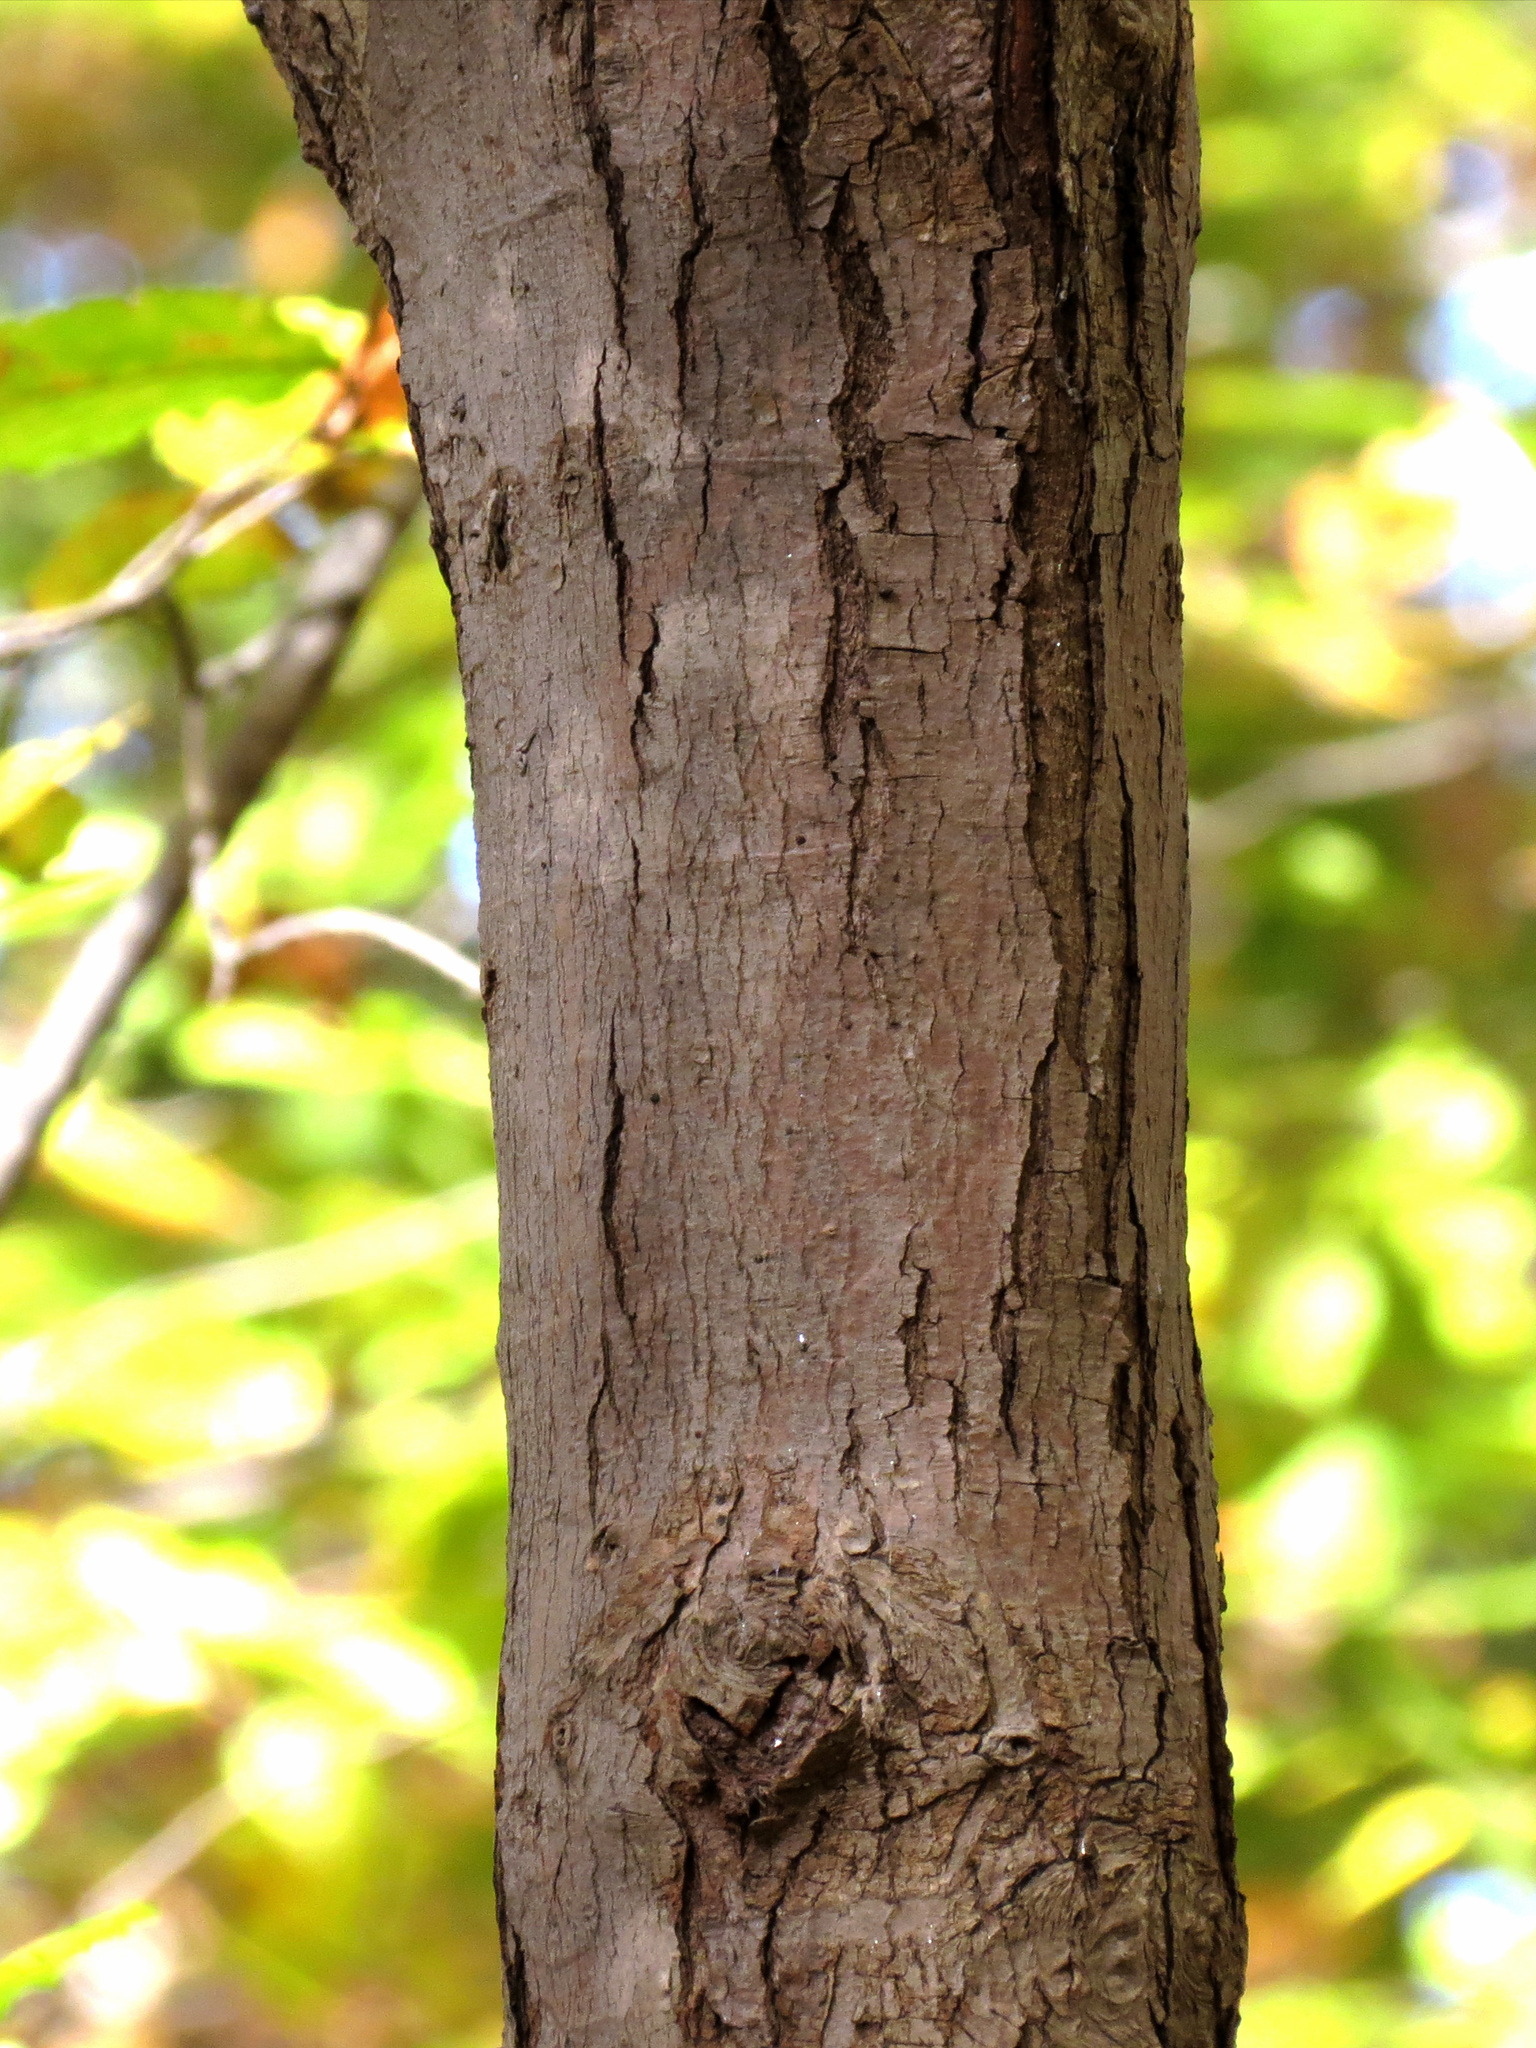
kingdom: Plantae
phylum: Tracheophyta
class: Magnoliopsida
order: Sapindales
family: Sapindaceae
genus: Acer
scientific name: Acer rubrum
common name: Red maple
